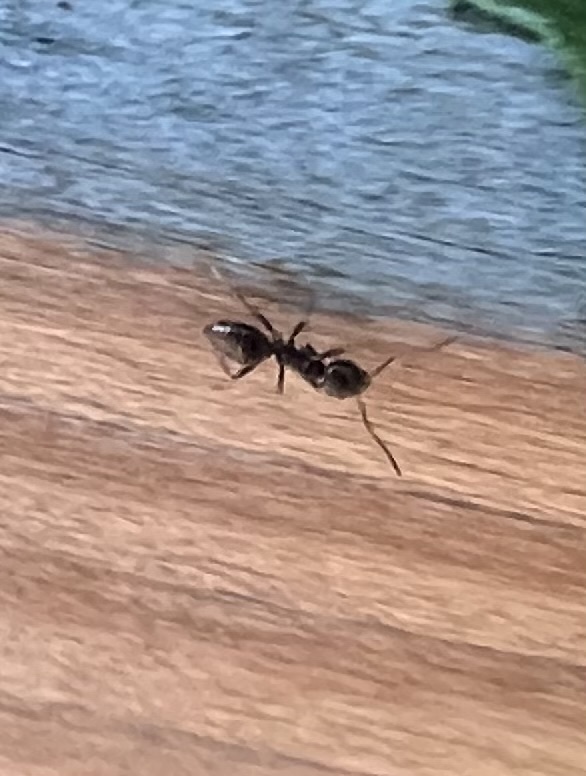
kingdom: Animalia
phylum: Arthropoda
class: Insecta
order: Hymenoptera
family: Formicidae
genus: Tapinoma
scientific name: Tapinoma sessile
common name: Odorous house ant
